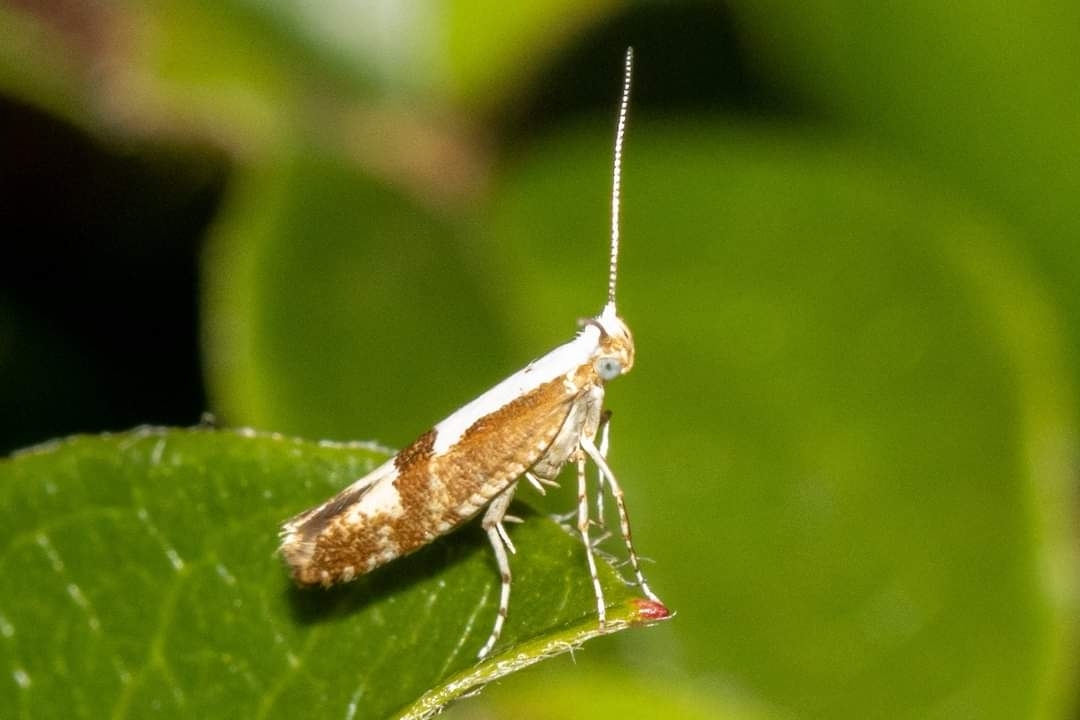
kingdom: Animalia
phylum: Arthropoda
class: Insecta
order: Lepidoptera
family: Argyresthiidae
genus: Argyresthia
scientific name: Argyresthia pruniella
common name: Cherry fruit moth
